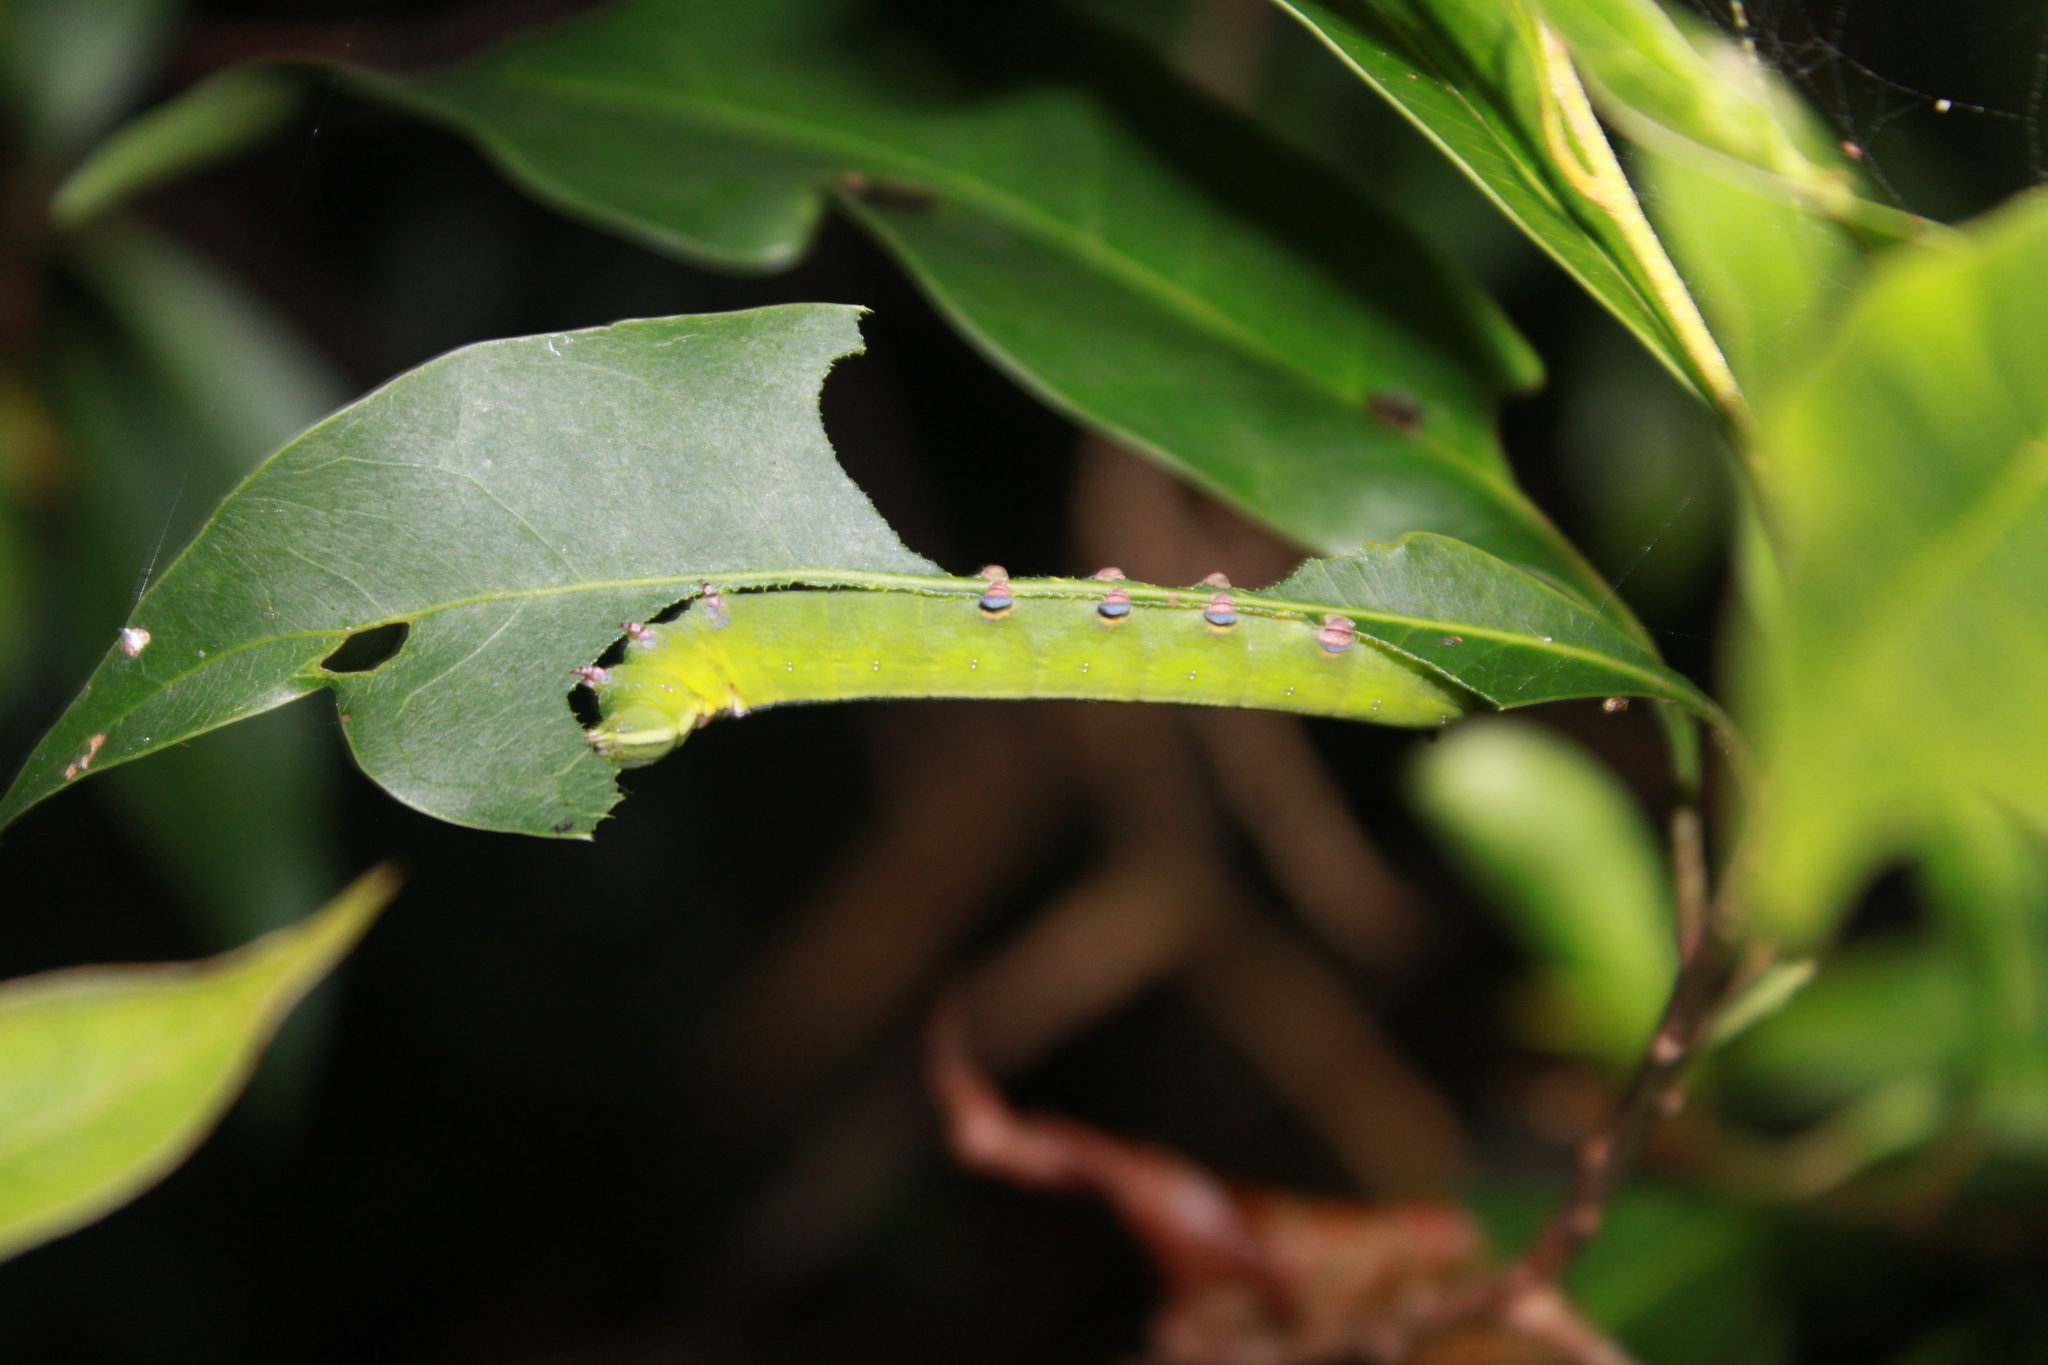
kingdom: Animalia
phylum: Arthropoda
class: Insecta
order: Lepidoptera
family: Sphingidae
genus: Erinnyis
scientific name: Erinnyis ello
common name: Ello sphinx
